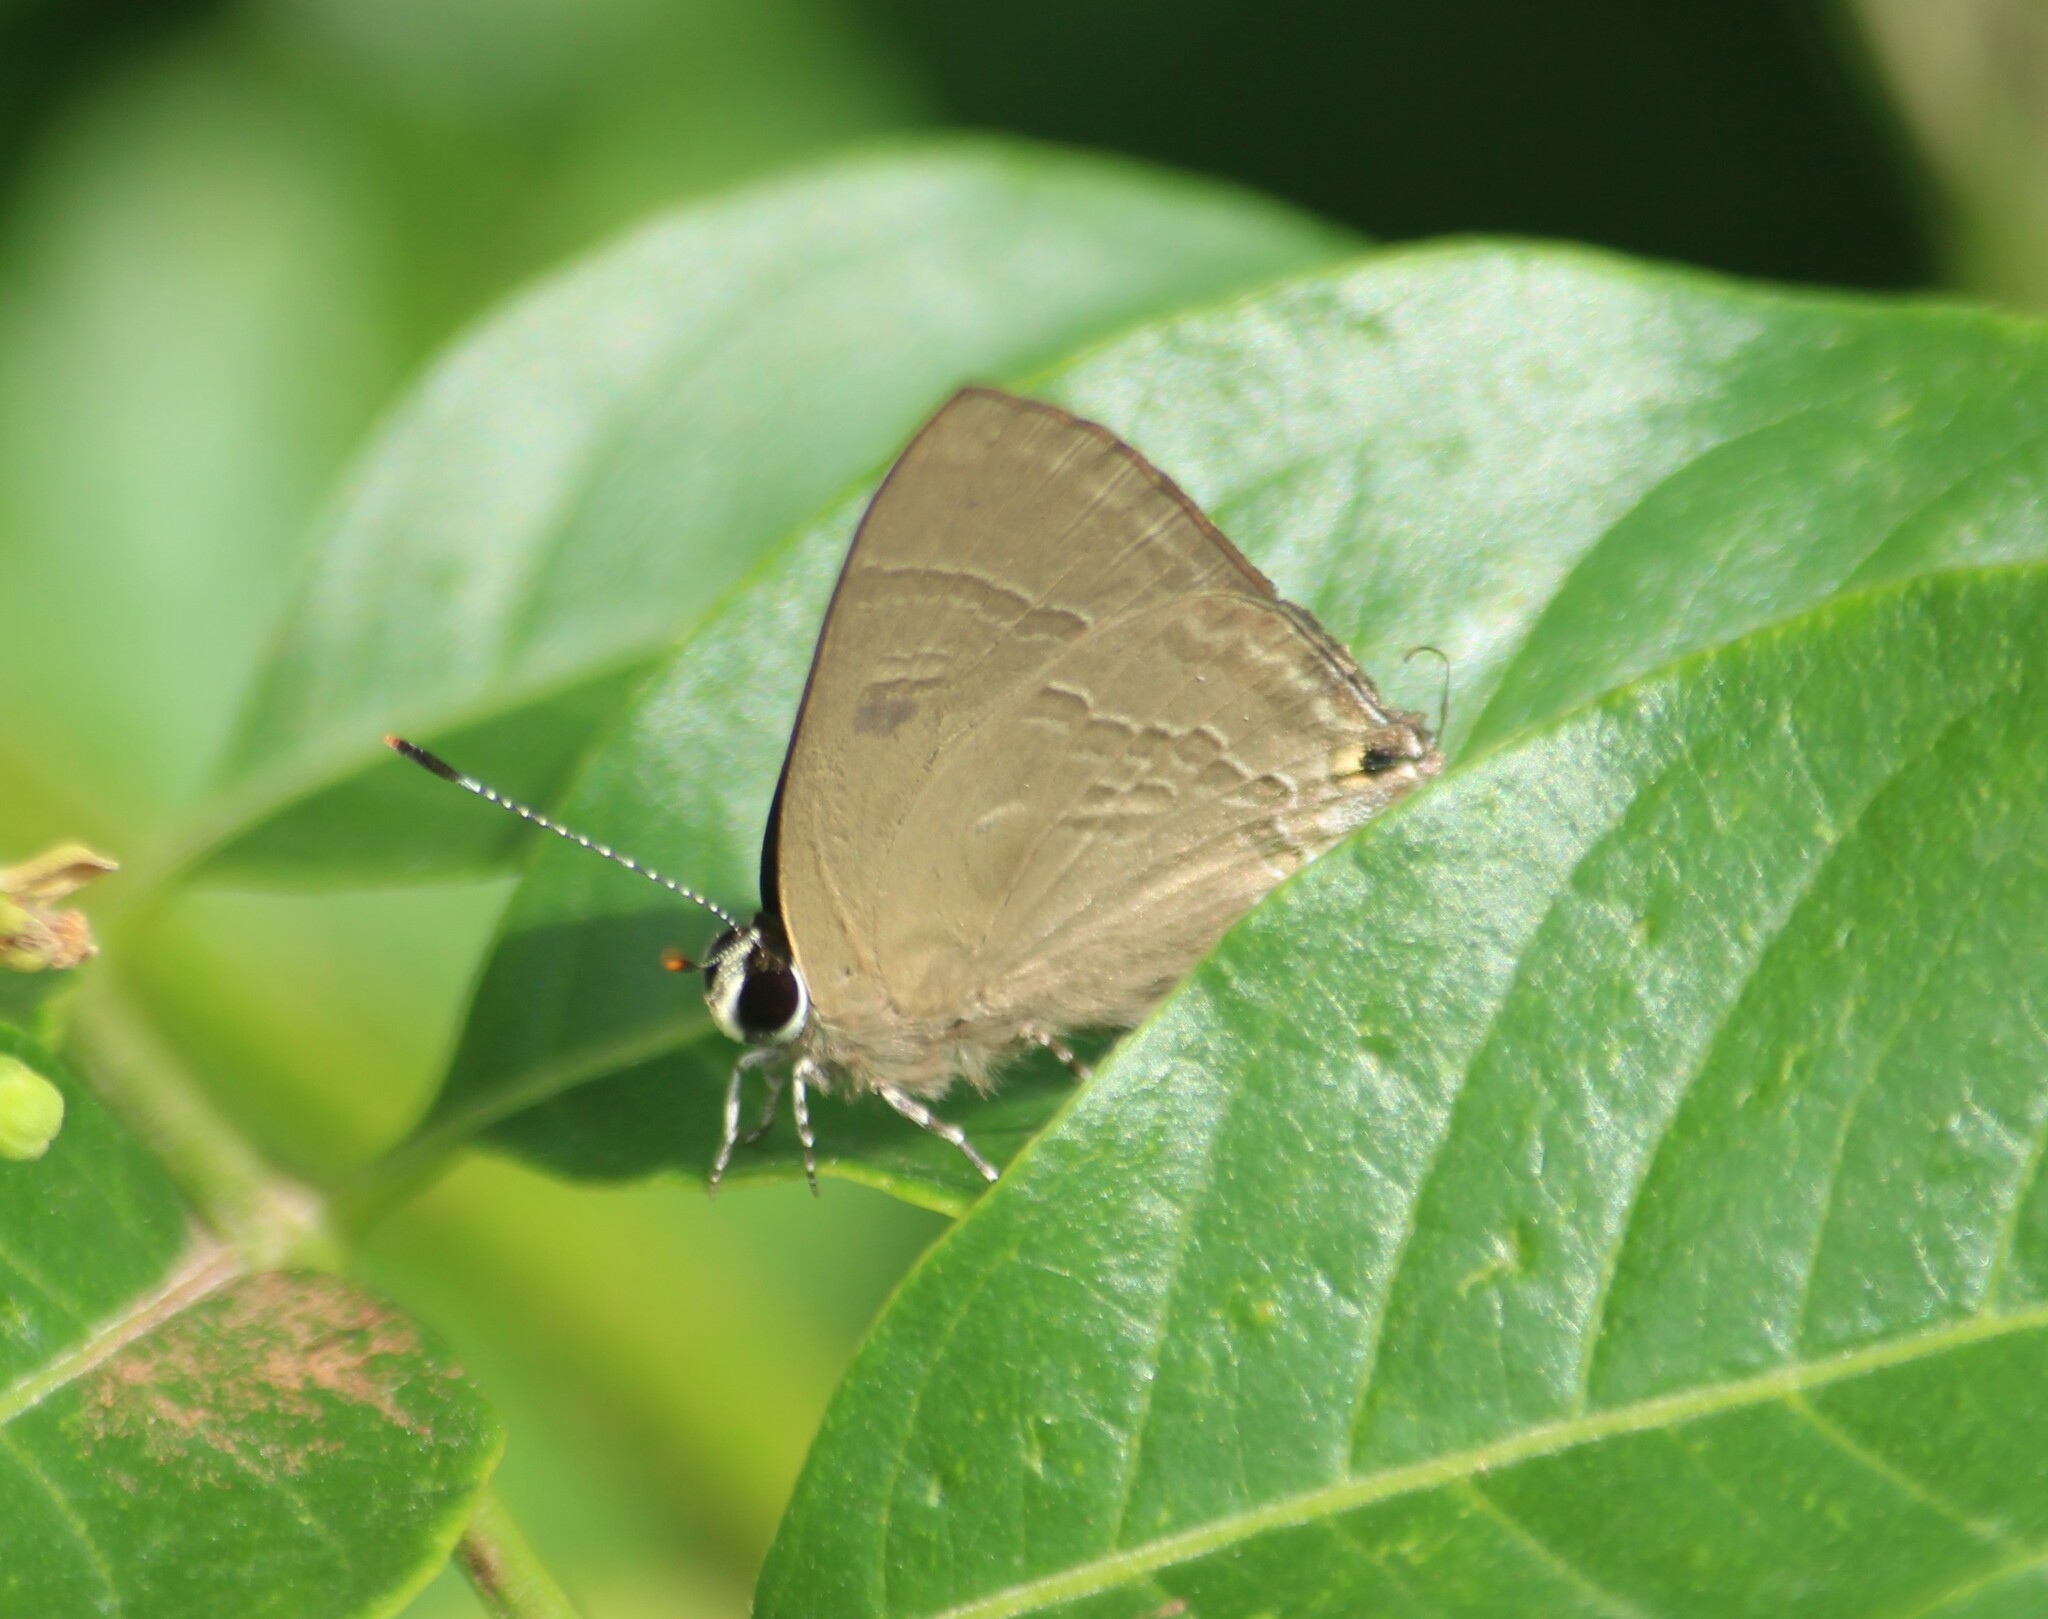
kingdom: Animalia
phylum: Arthropoda
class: Insecta
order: Lepidoptera
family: Lycaenidae
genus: Rapala
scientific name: Rapala manea
